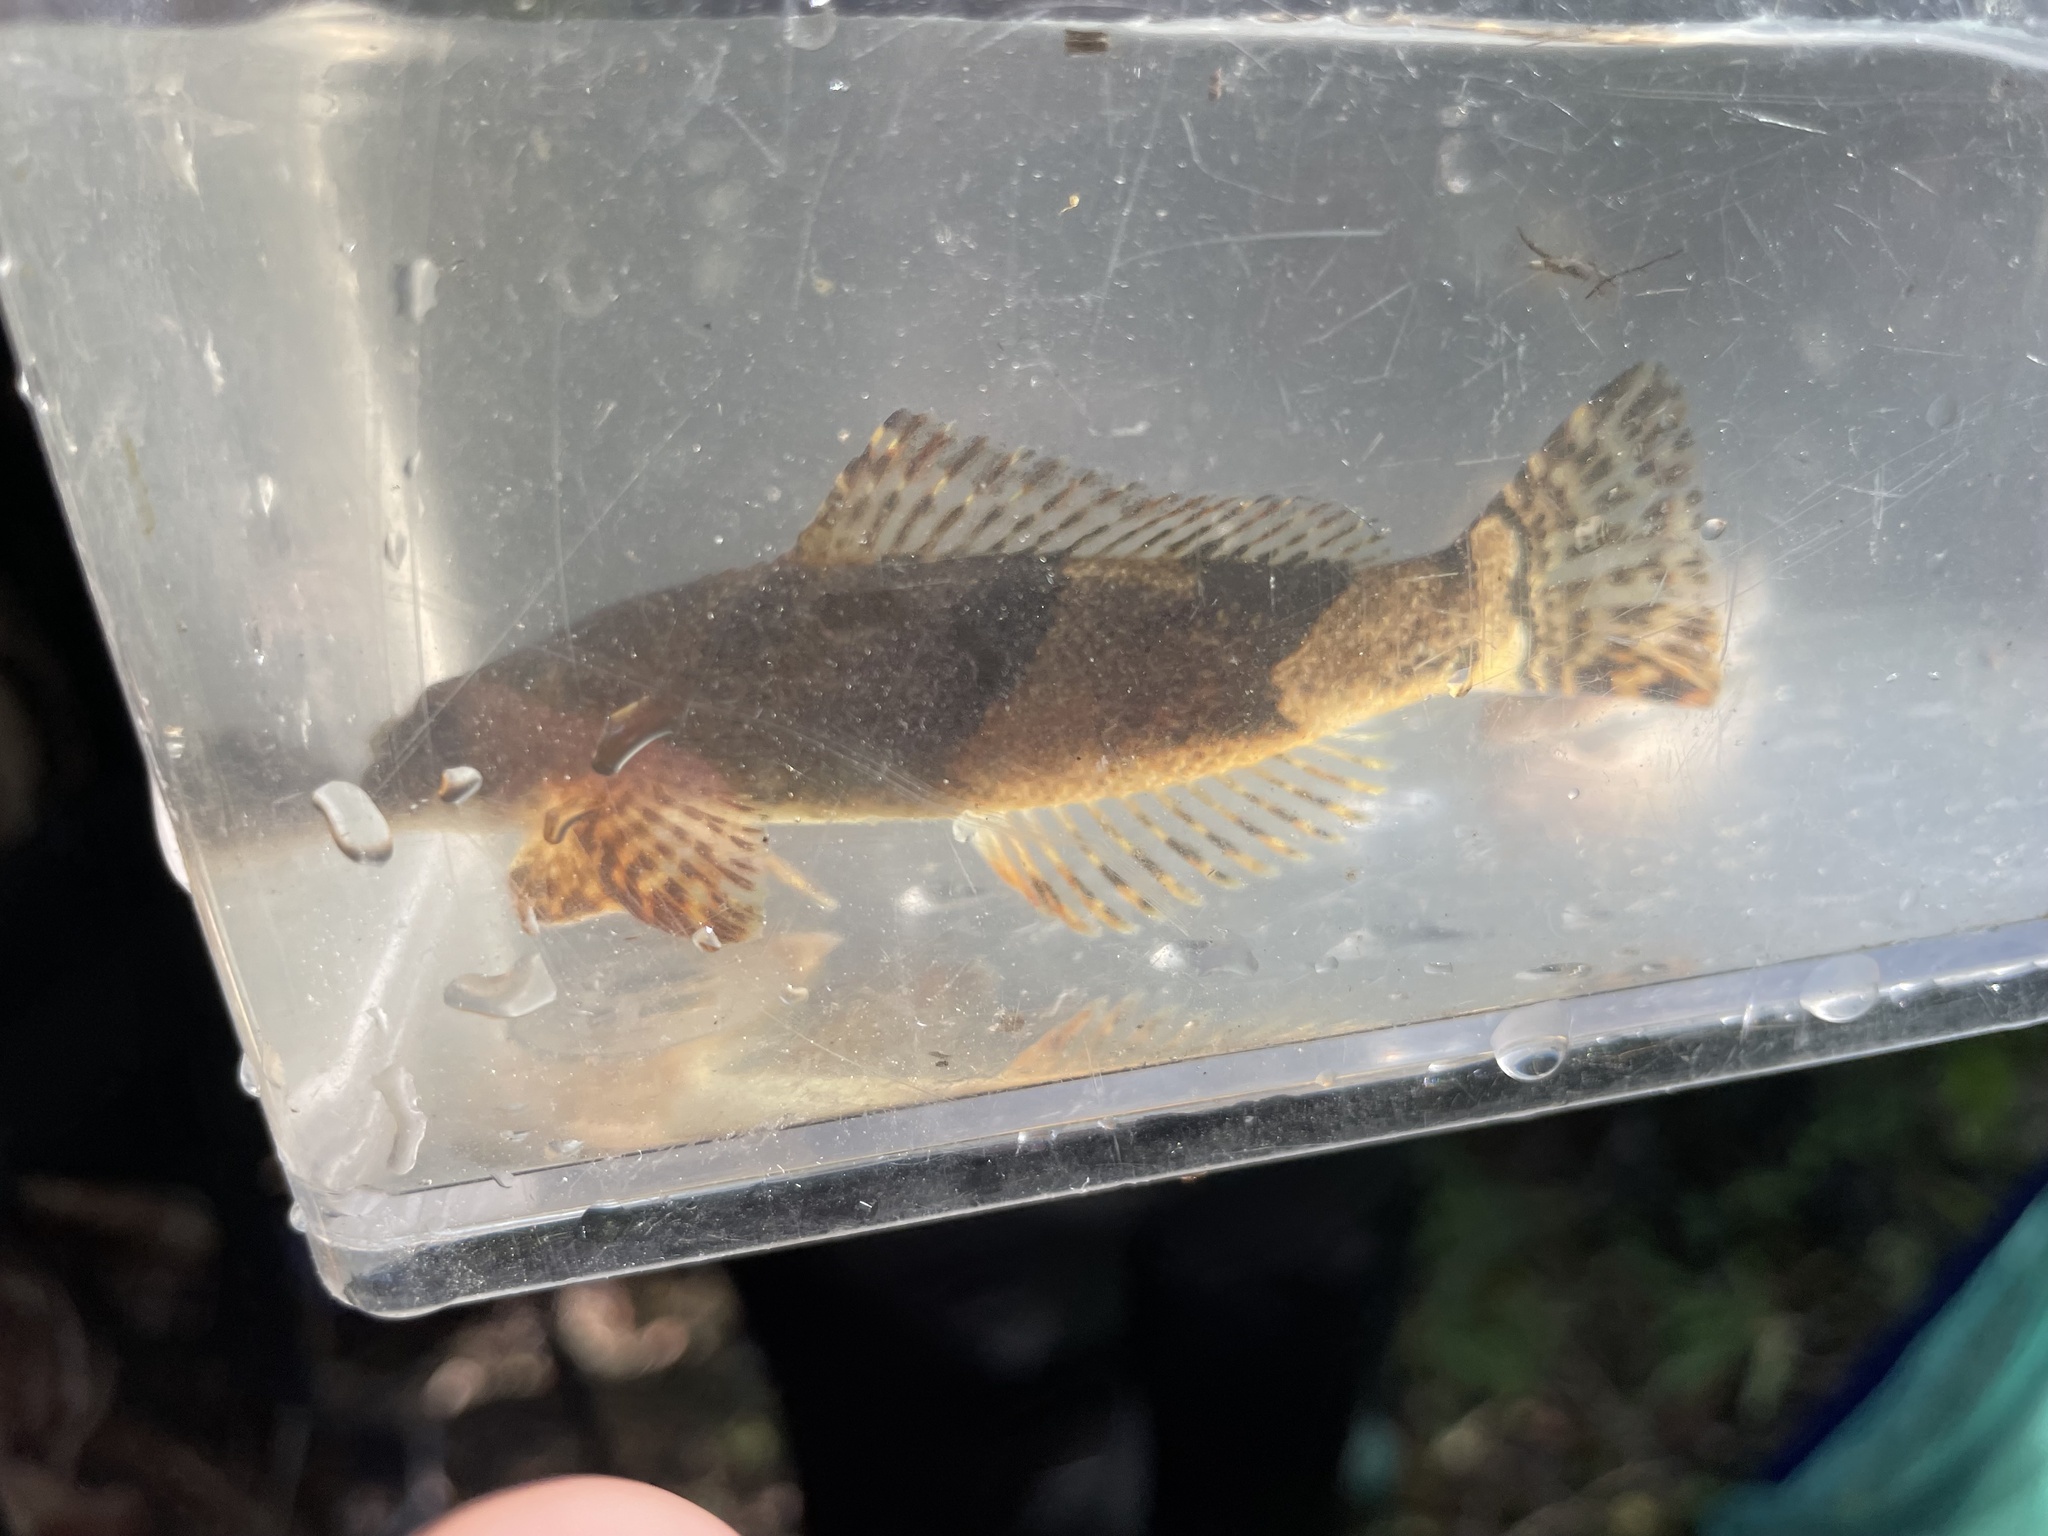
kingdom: Animalia
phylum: Chordata
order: Perciformes
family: Cheimarrichthyidae
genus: Cheimarrichthys
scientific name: Cheimarrichthys fosterae
